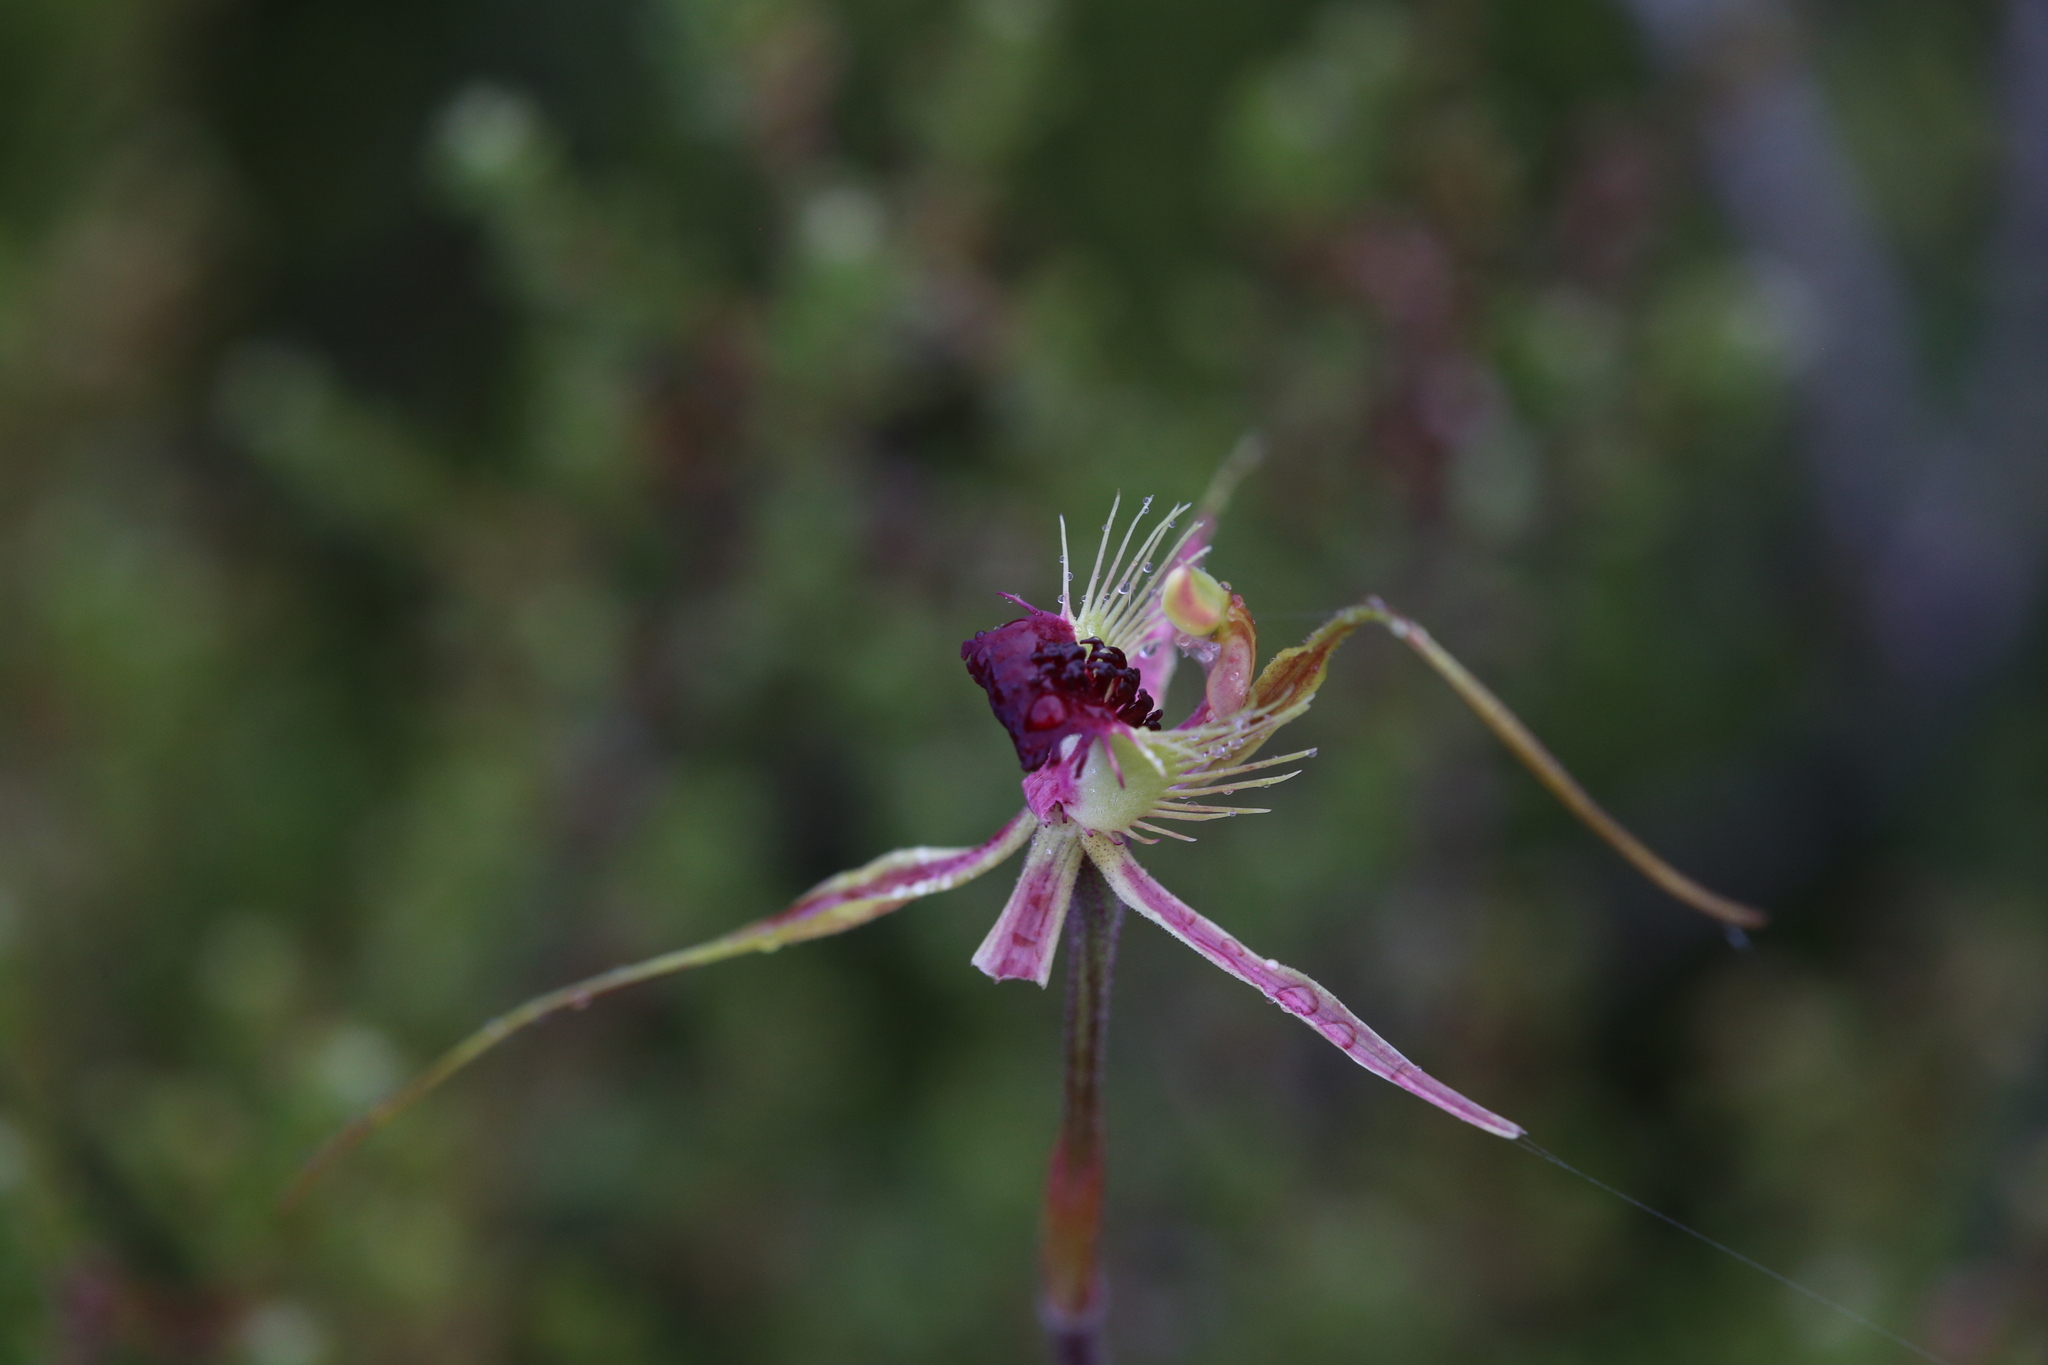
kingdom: Plantae
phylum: Tracheophyta
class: Liliopsida
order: Asparagales
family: Orchidaceae
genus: Caladenia
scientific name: Caladenia radiata
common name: Ray spider orchid
